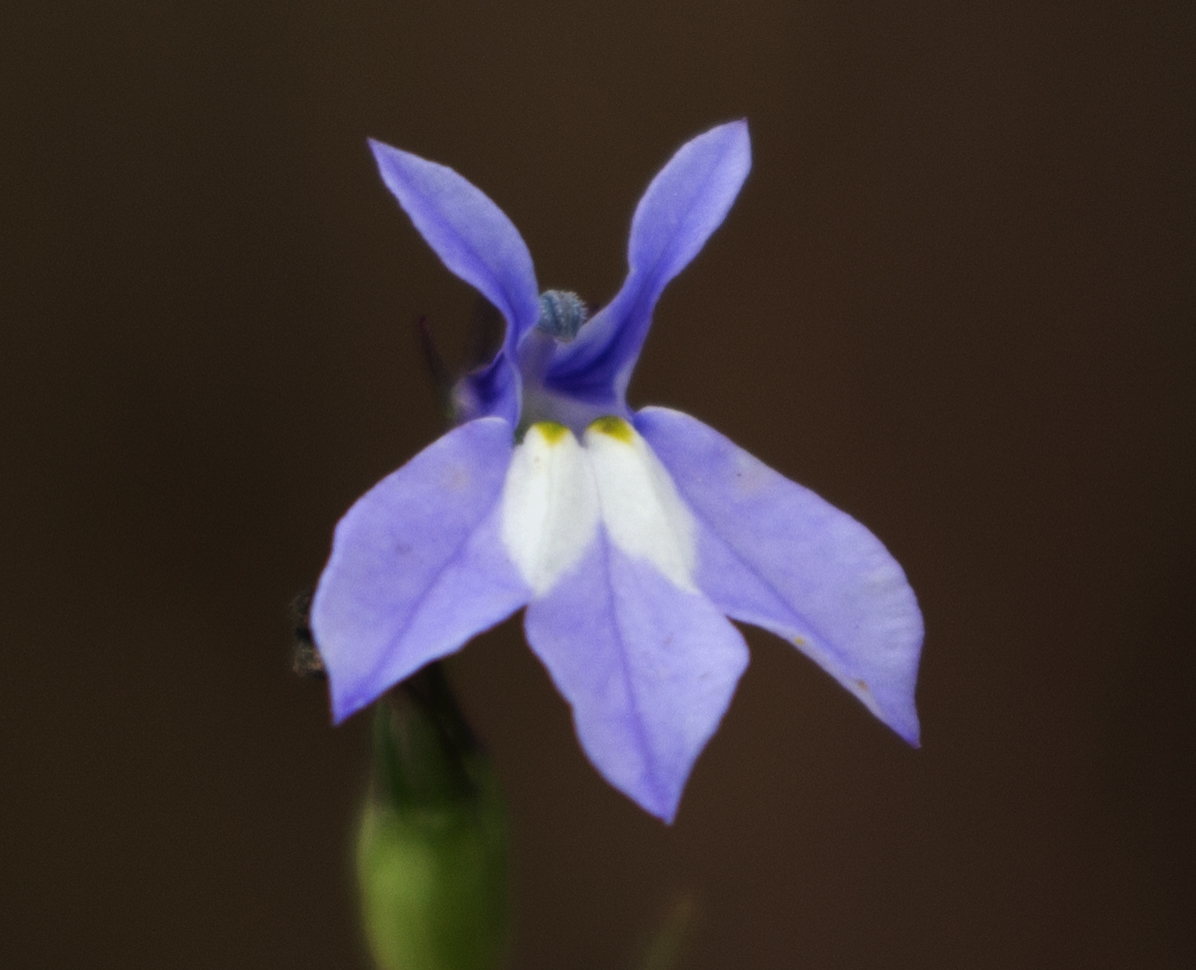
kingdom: Plantae
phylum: Tracheophyta
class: Magnoliopsida
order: Asterales
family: Campanulaceae
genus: Lobelia
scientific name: Lobelia kalmii
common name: Kalm's lobelia
